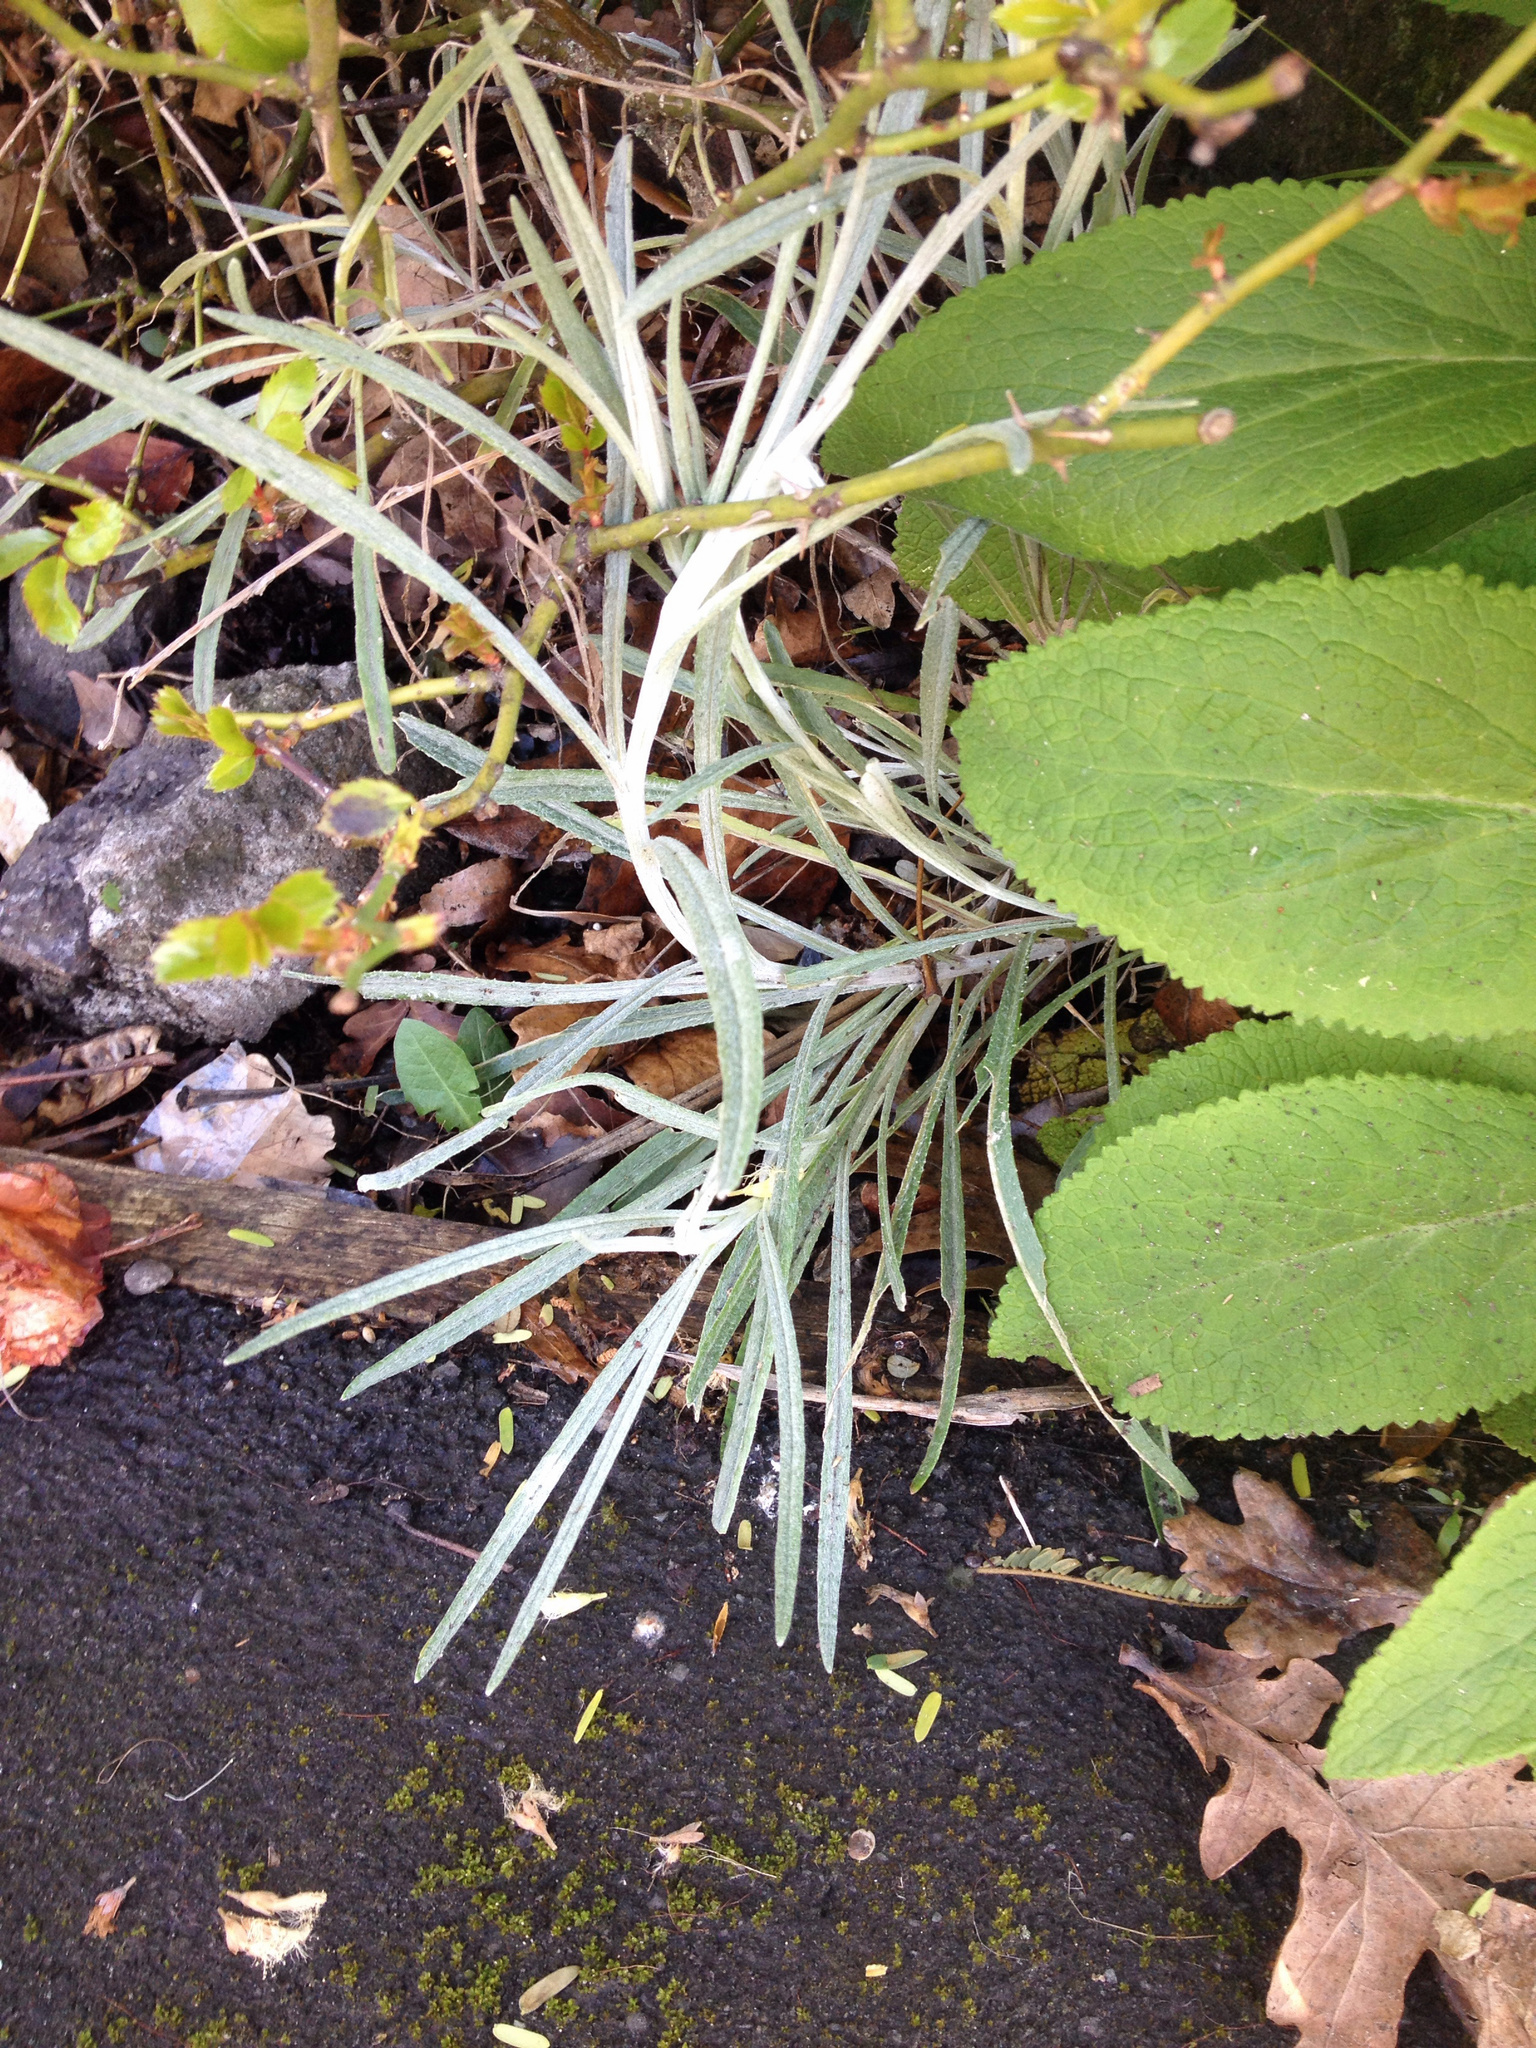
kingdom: Plantae
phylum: Tracheophyta
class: Magnoliopsida
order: Asterales
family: Asteraceae
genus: Senecio
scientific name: Senecio quadridentatus
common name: Cotton fireweed
